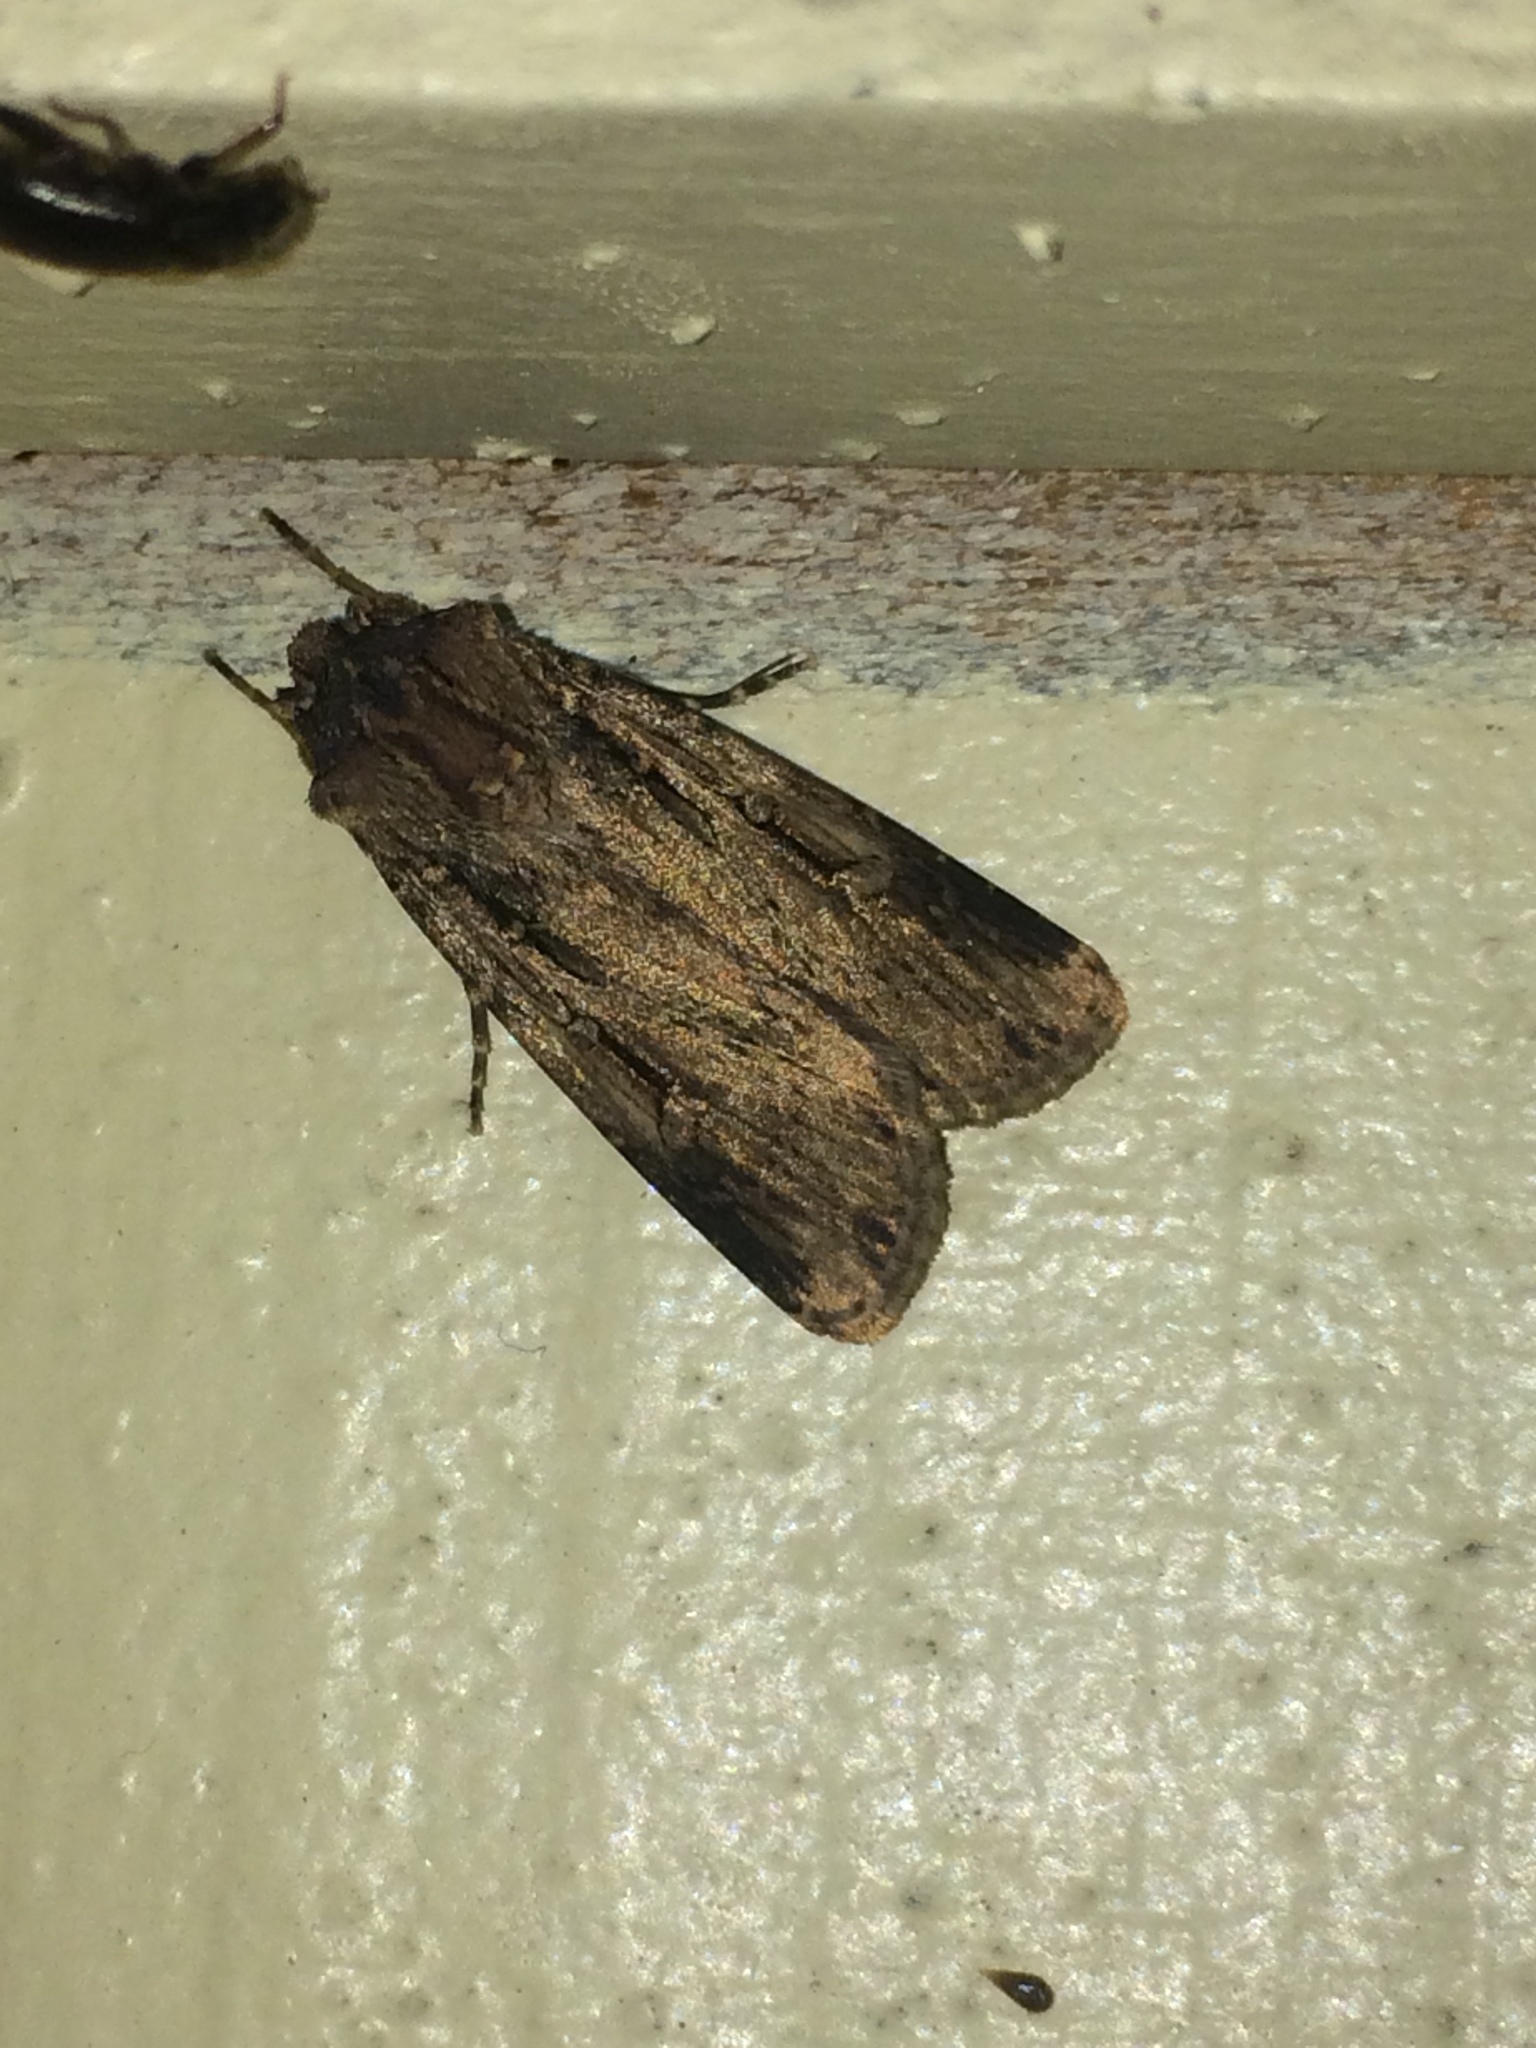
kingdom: Animalia
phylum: Arthropoda
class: Insecta
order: Lepidoptera
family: Noctuidae
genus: Feltia
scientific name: Feltia subterranea
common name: Granulate cutworm
